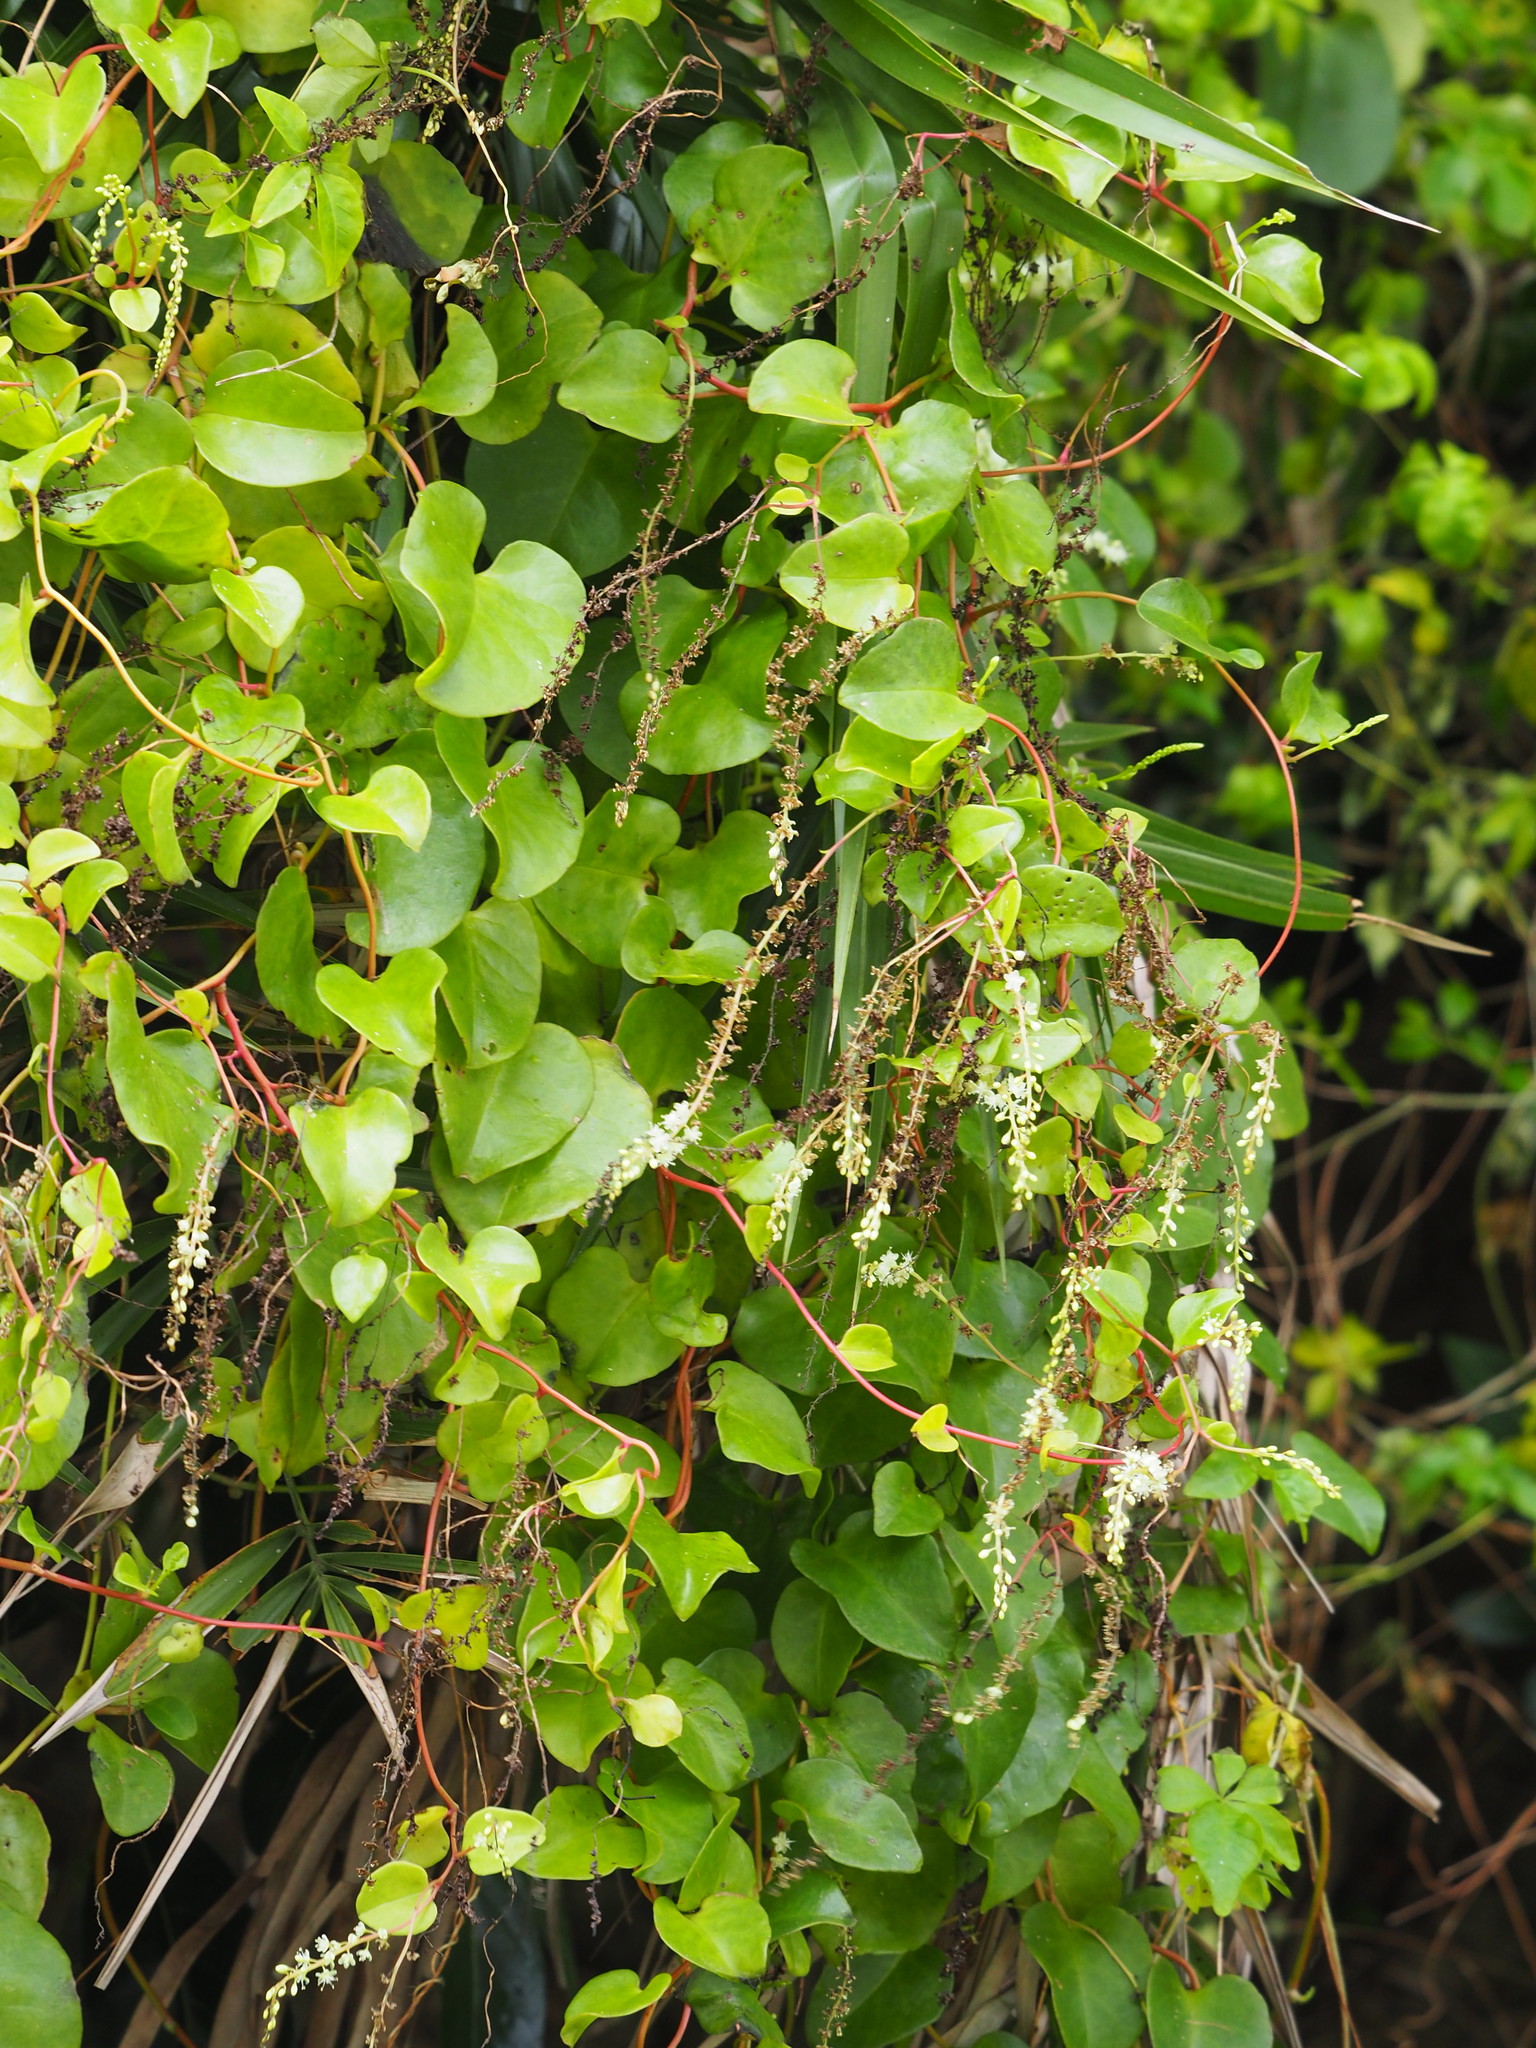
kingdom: Plantae
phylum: Tracheophyta
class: Magnoliopsida
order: Caryophyllales
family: Basellaceae
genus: Anredera
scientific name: Anredera cordifolia
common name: Heartleaf madeiravine
